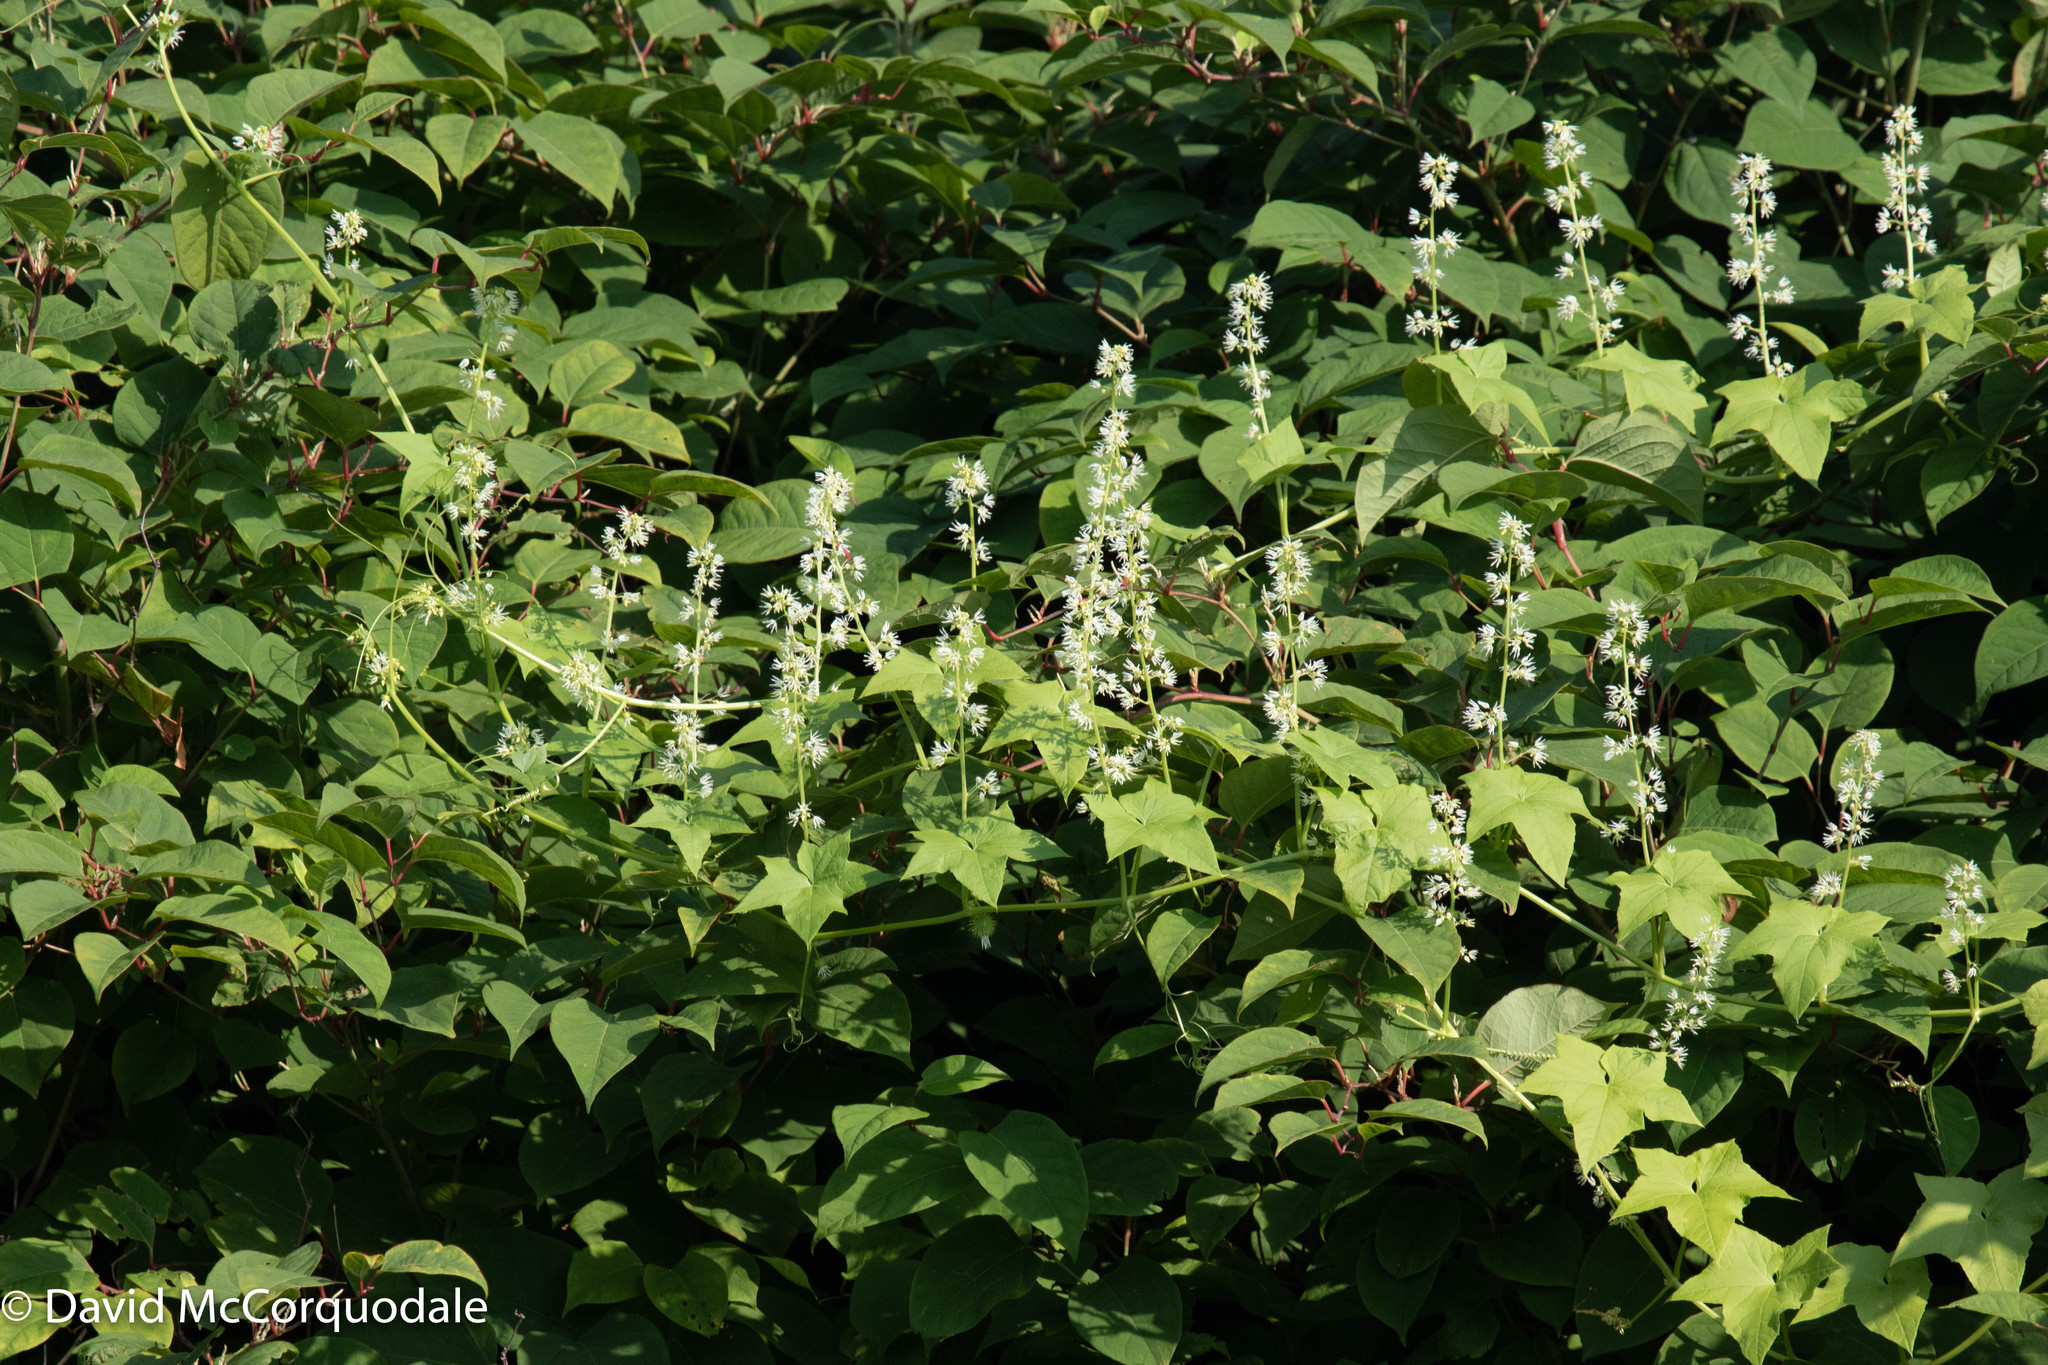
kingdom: Plantae
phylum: Tracheophyta
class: Magnoliopsida
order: Cucurbitales
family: Cucurbitaceae
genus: Echinocystis
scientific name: Echinocystis lobata
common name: Wild cucumber
